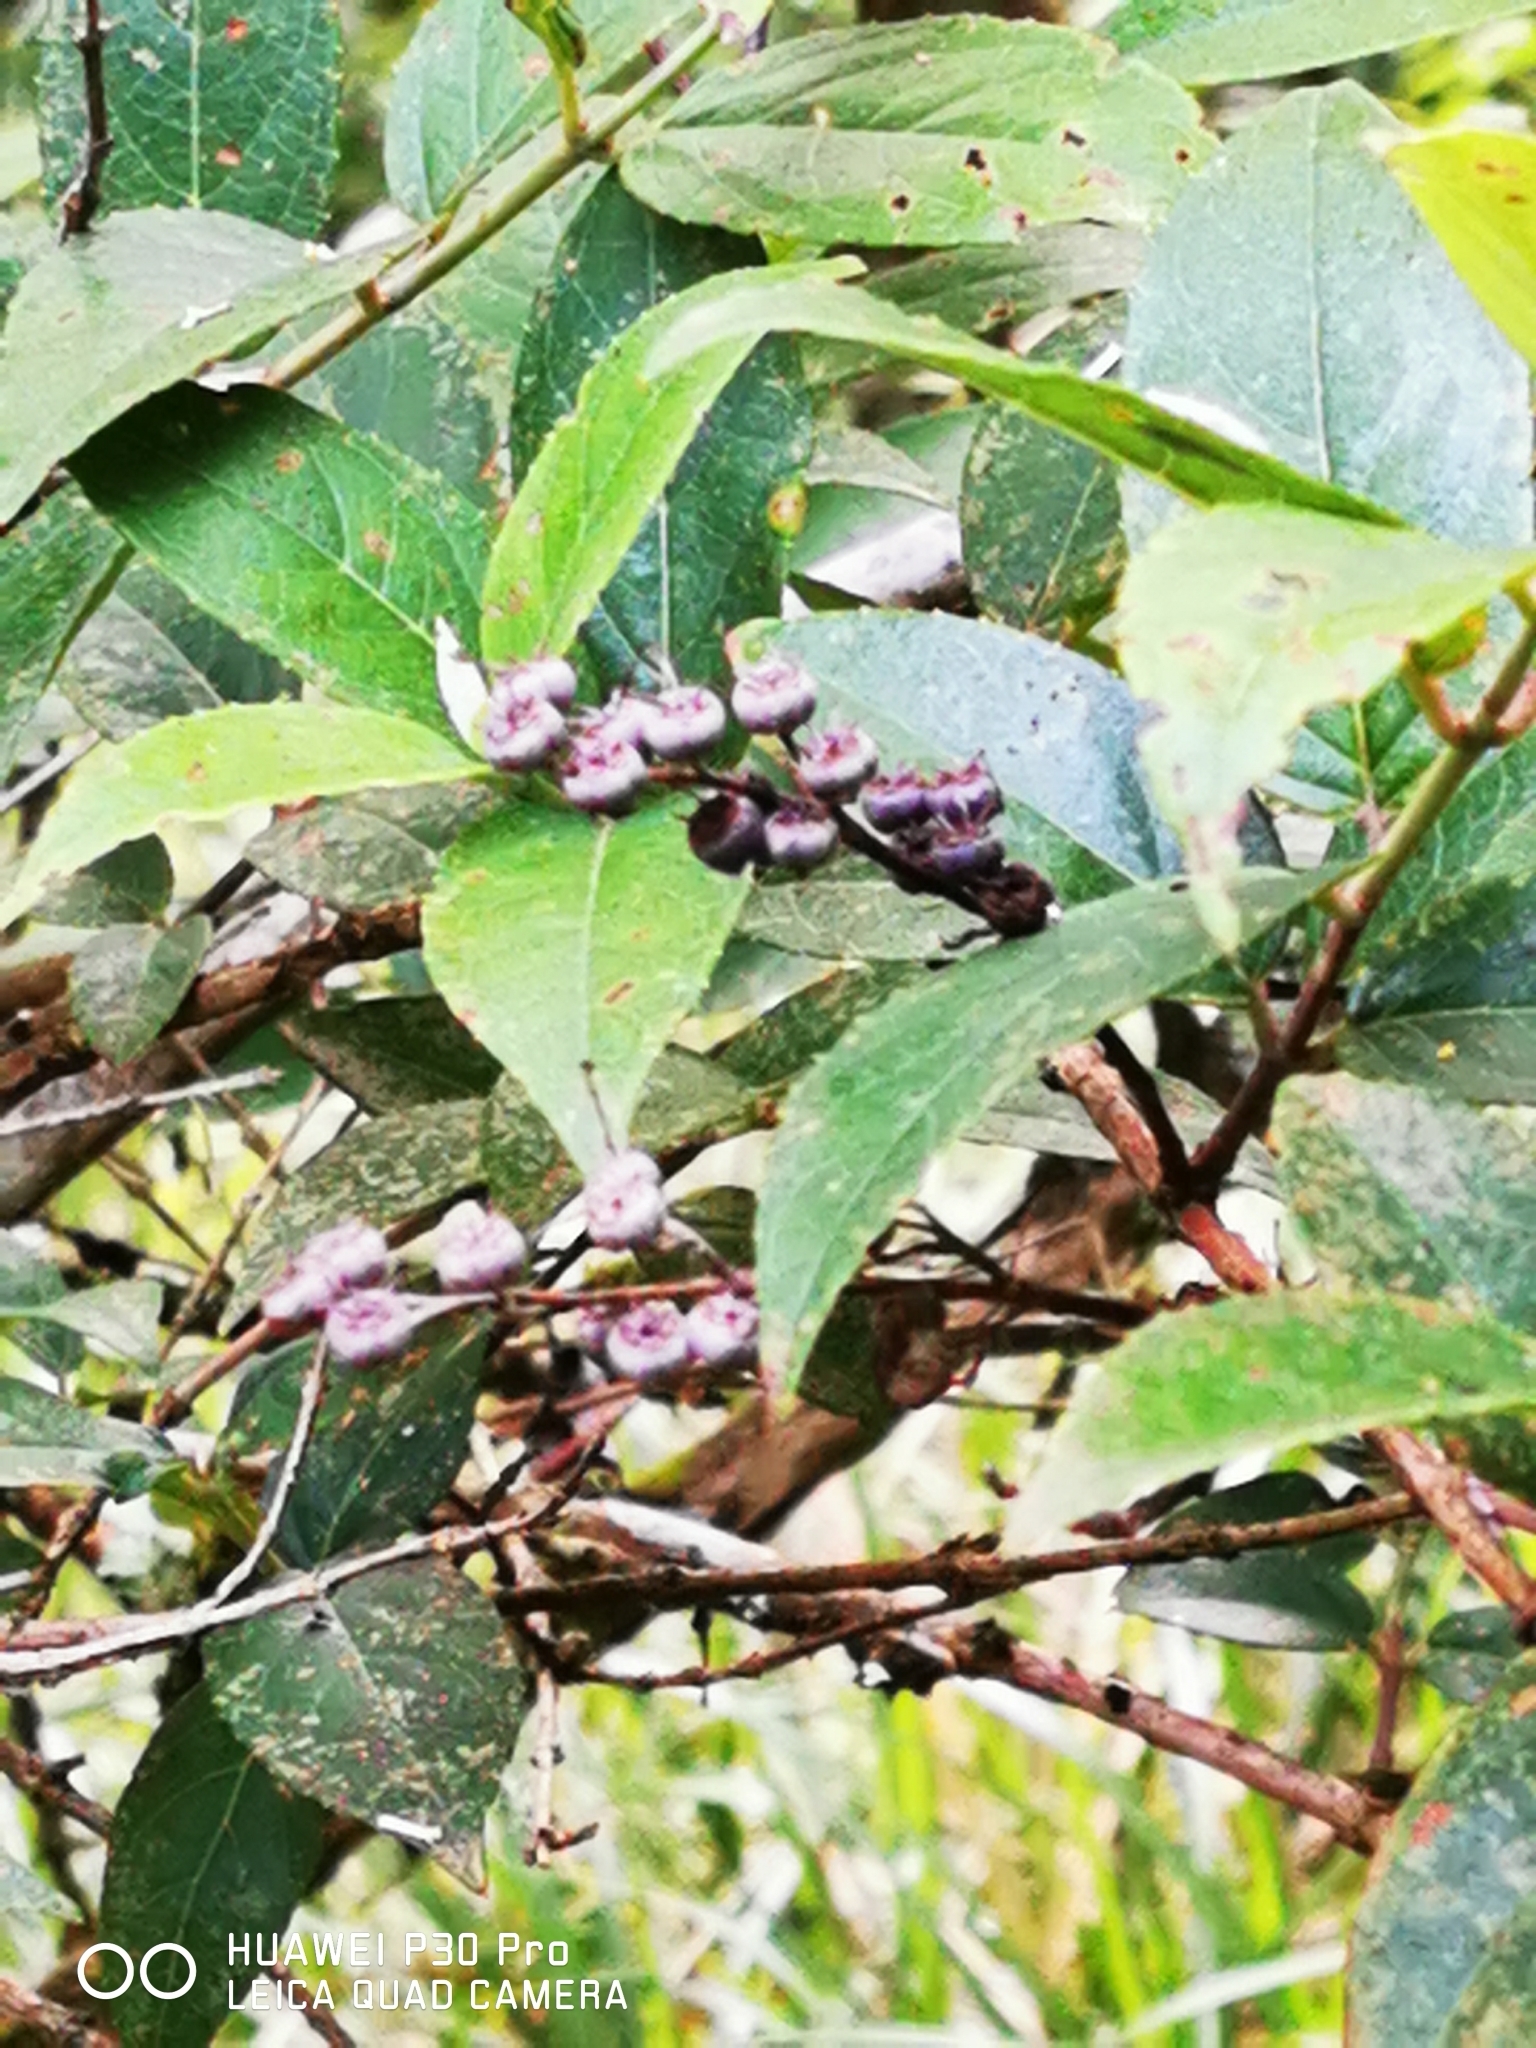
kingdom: Plantae
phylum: Tracheophyta
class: Magnoliopsida
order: Cornales
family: Hydrangeaceae
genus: Deutzia
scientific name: Deutzia pulchra
